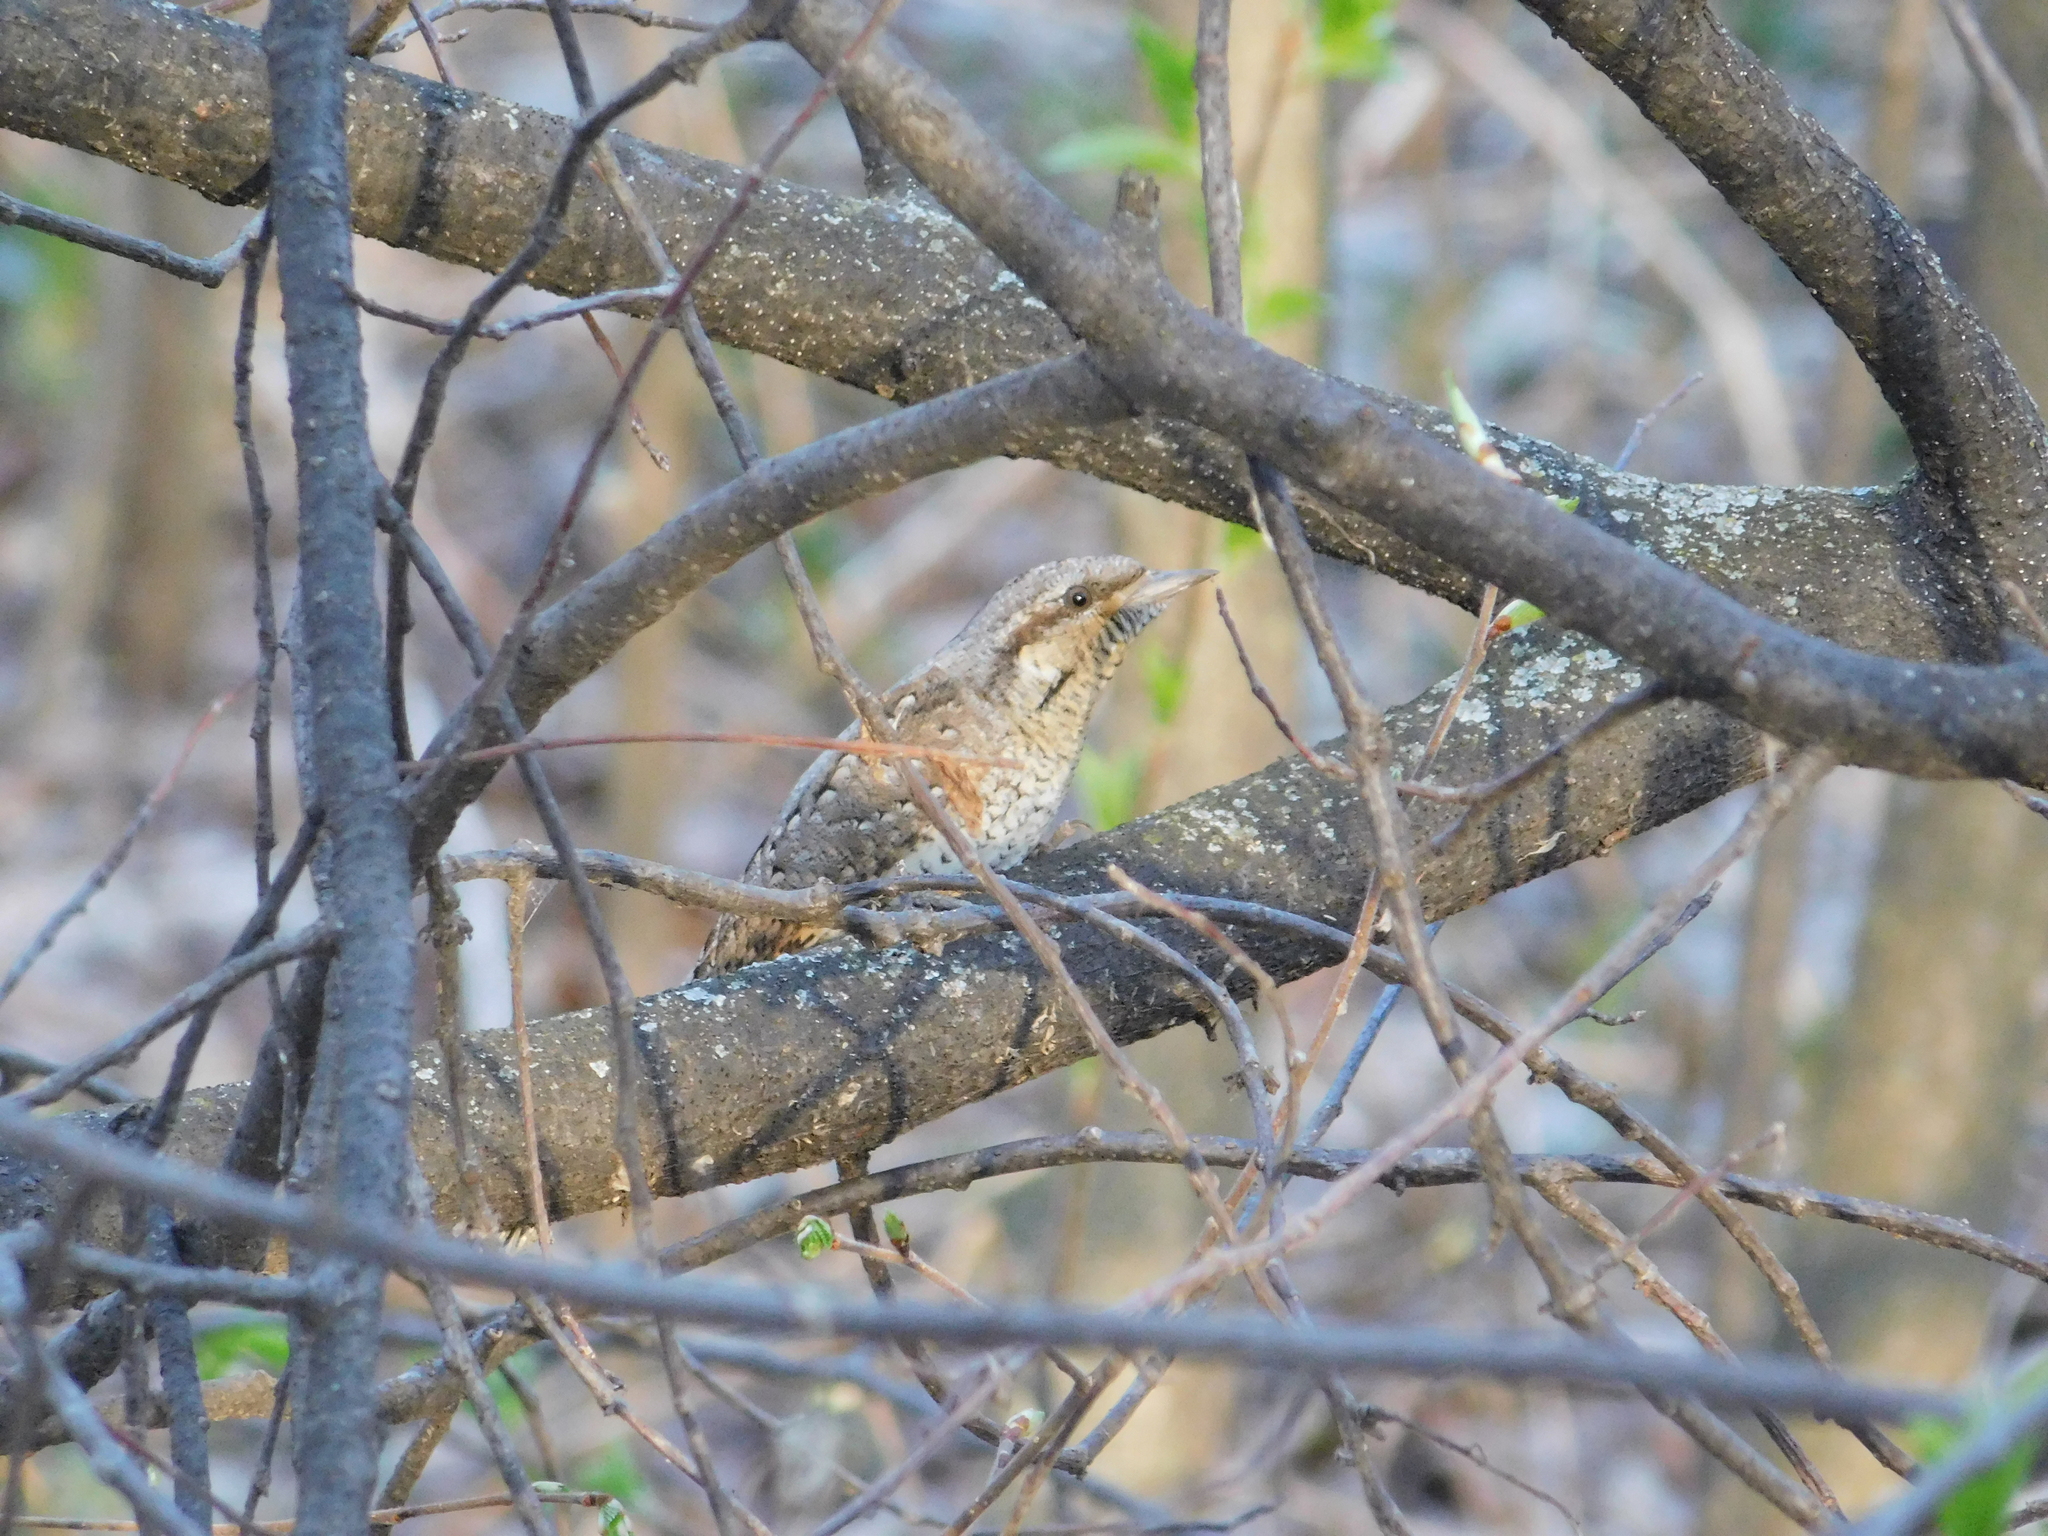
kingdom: Animalia
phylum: Chordata
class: Aves
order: Piciformes
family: Picidae
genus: Jynx
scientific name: Jynx torquilla
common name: Eurasian wryneck
